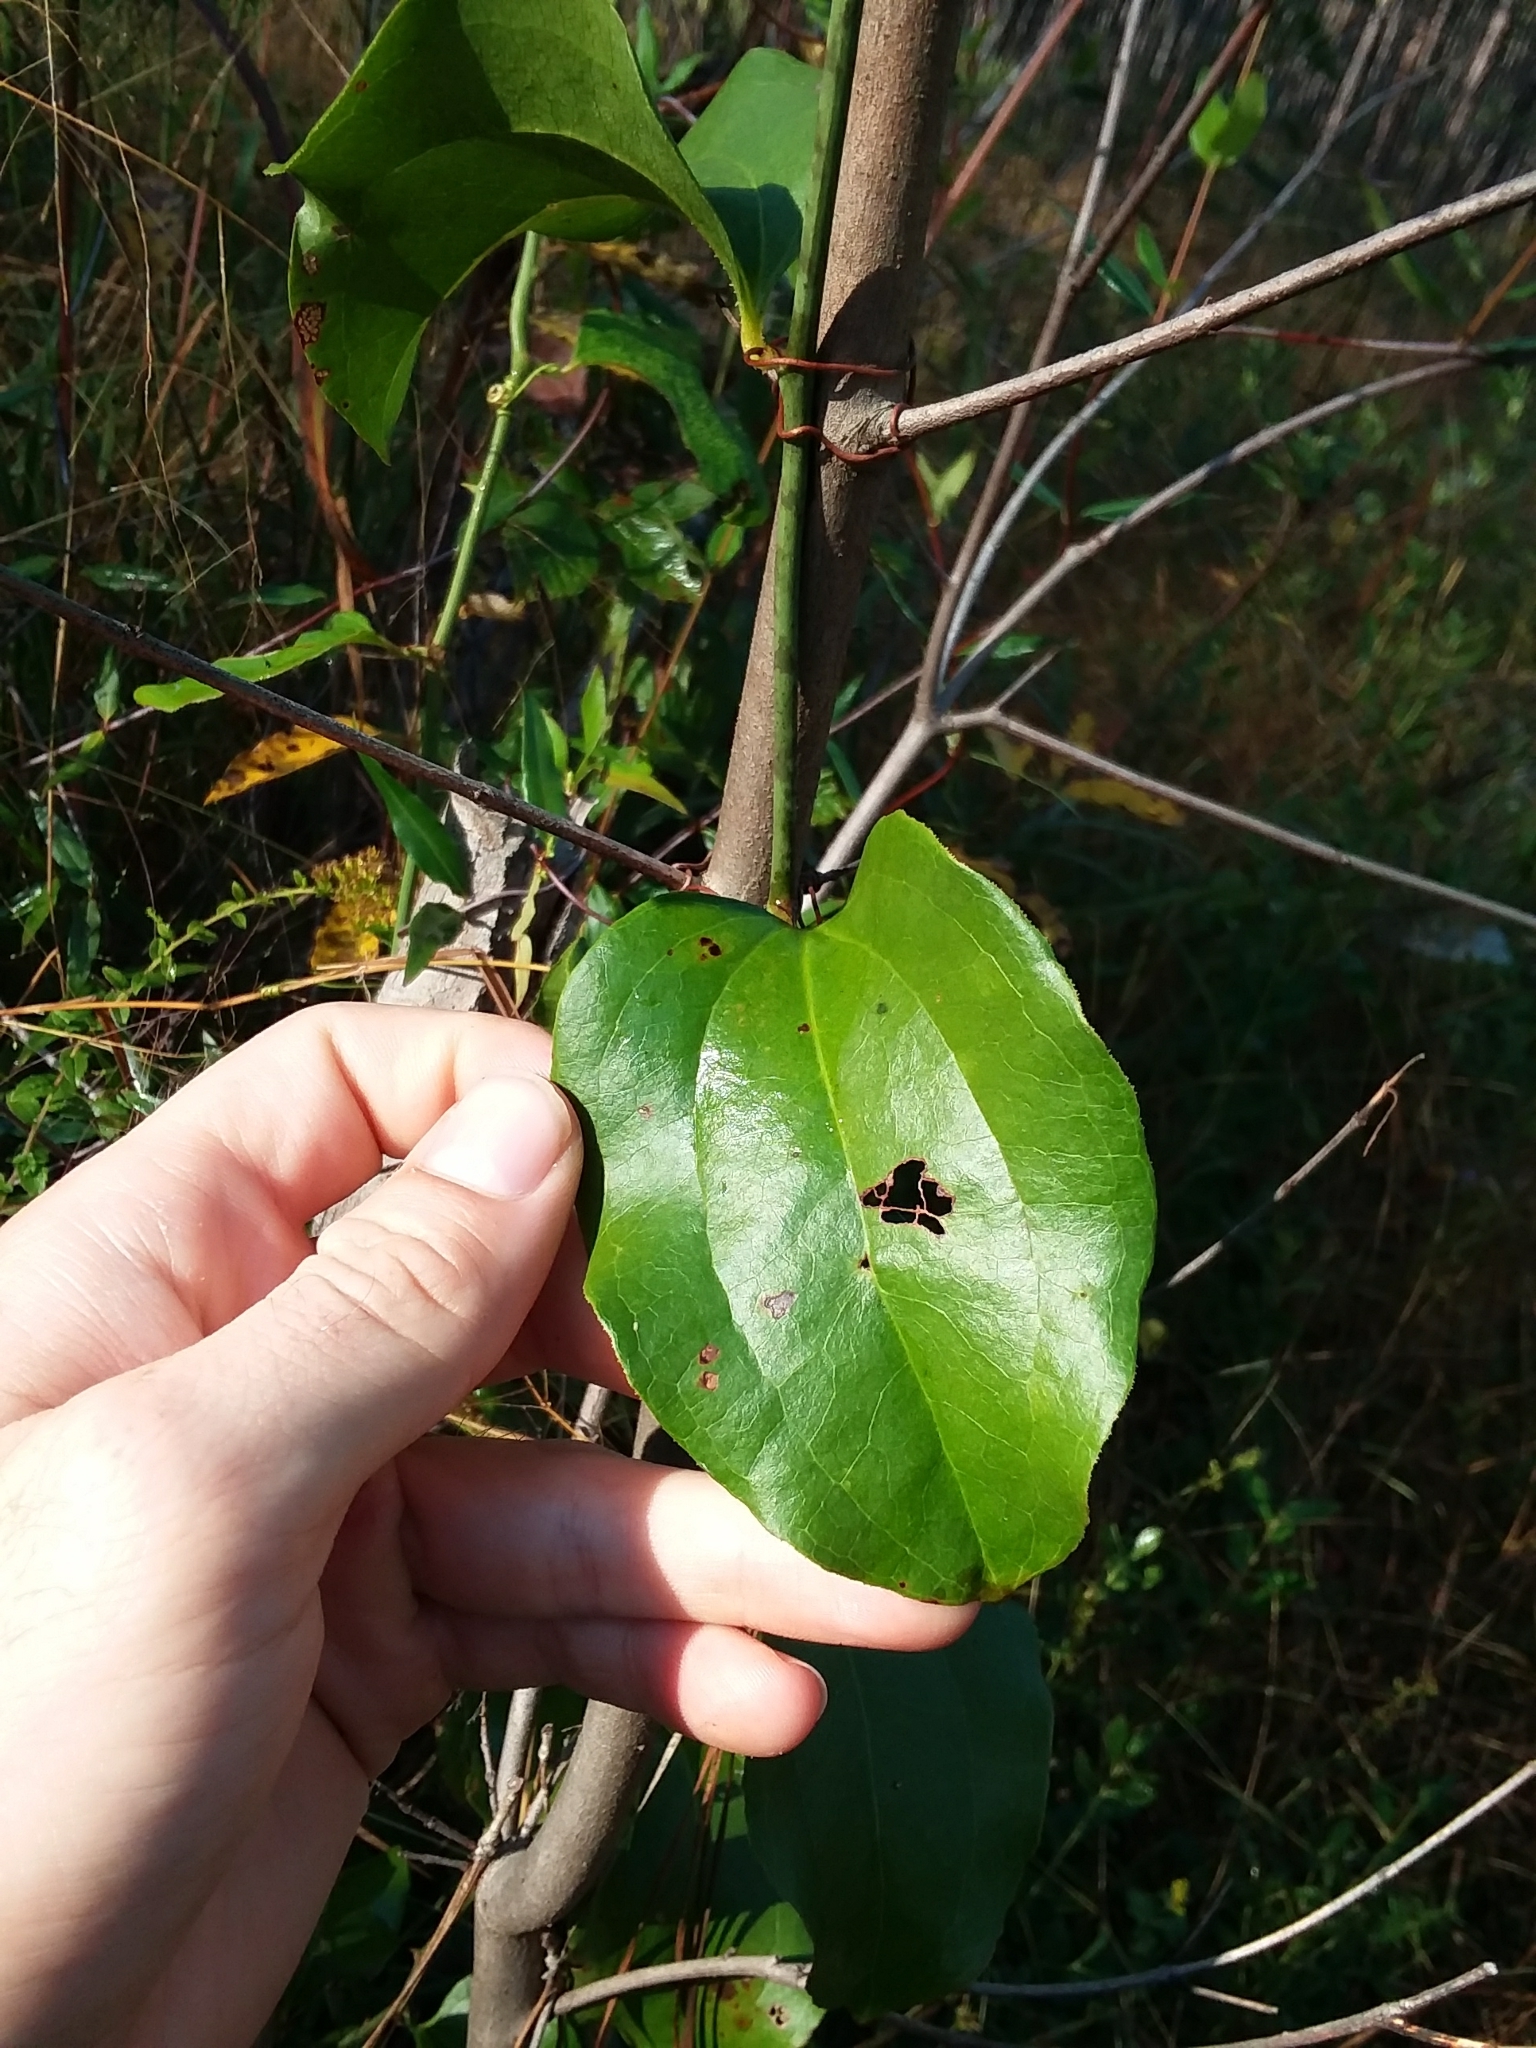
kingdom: Plantae
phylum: Tracheophyta
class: Liliopsida
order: Liliales
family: Smilacaceae
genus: Smilax
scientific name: Smilax rotundifolia
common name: Bullbriar
